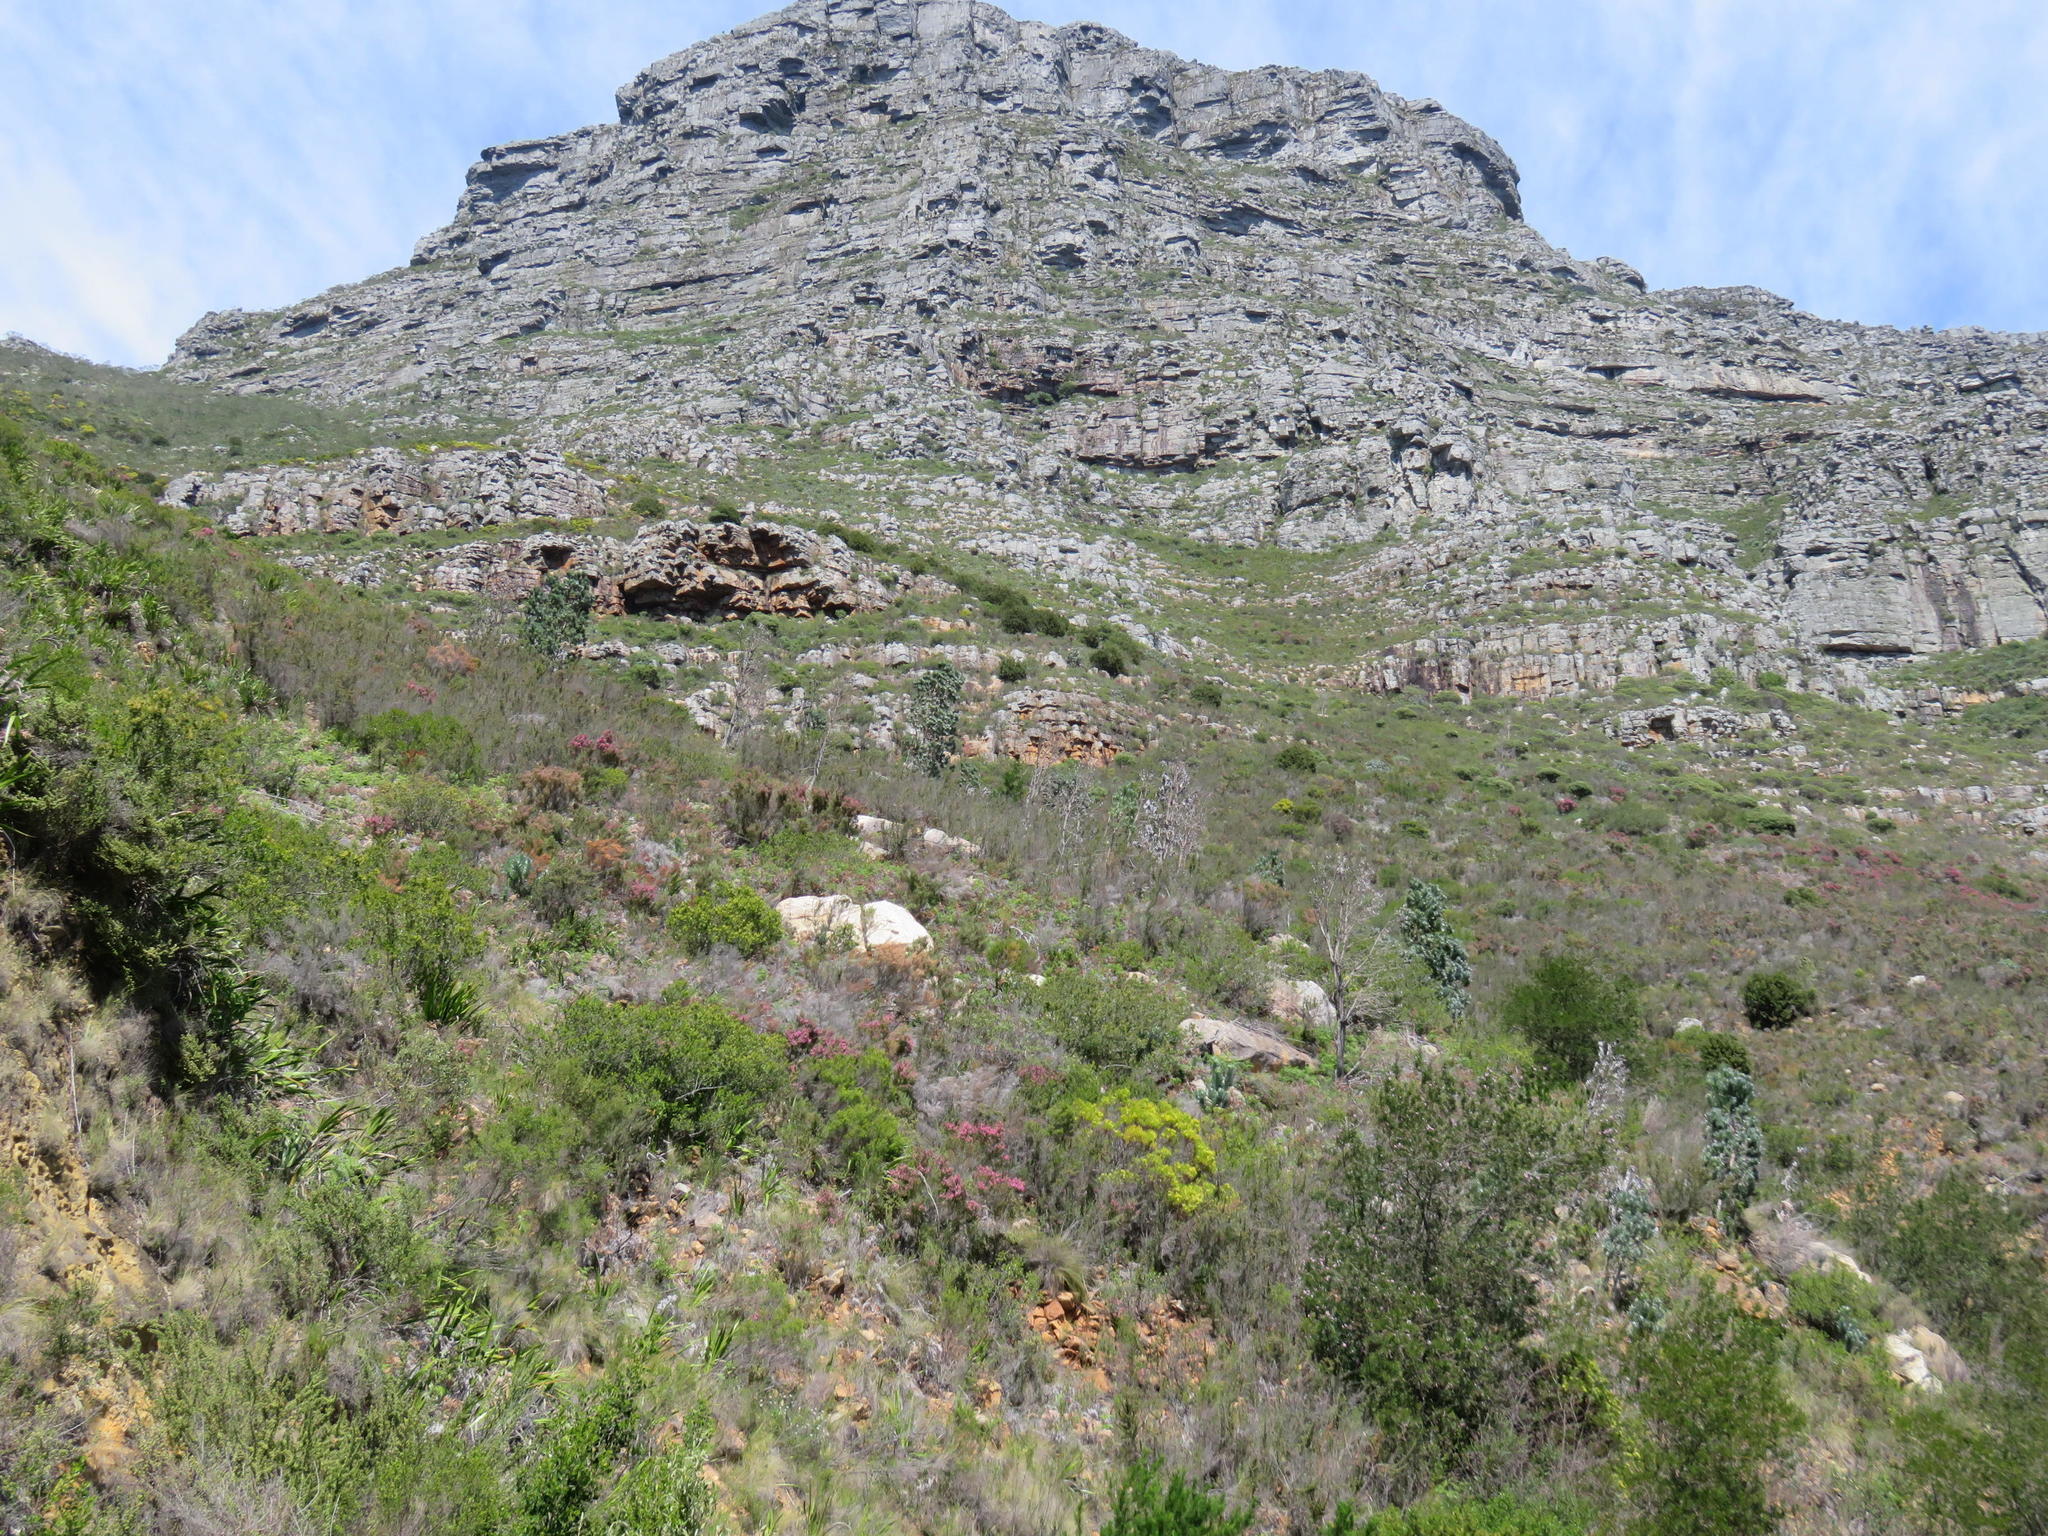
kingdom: Plantae
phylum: Tracheophyta
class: Magnoliopsida
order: Fabales
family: Fabaceae
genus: Acacia
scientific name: Acacia melanoxylon
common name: Blackwood
